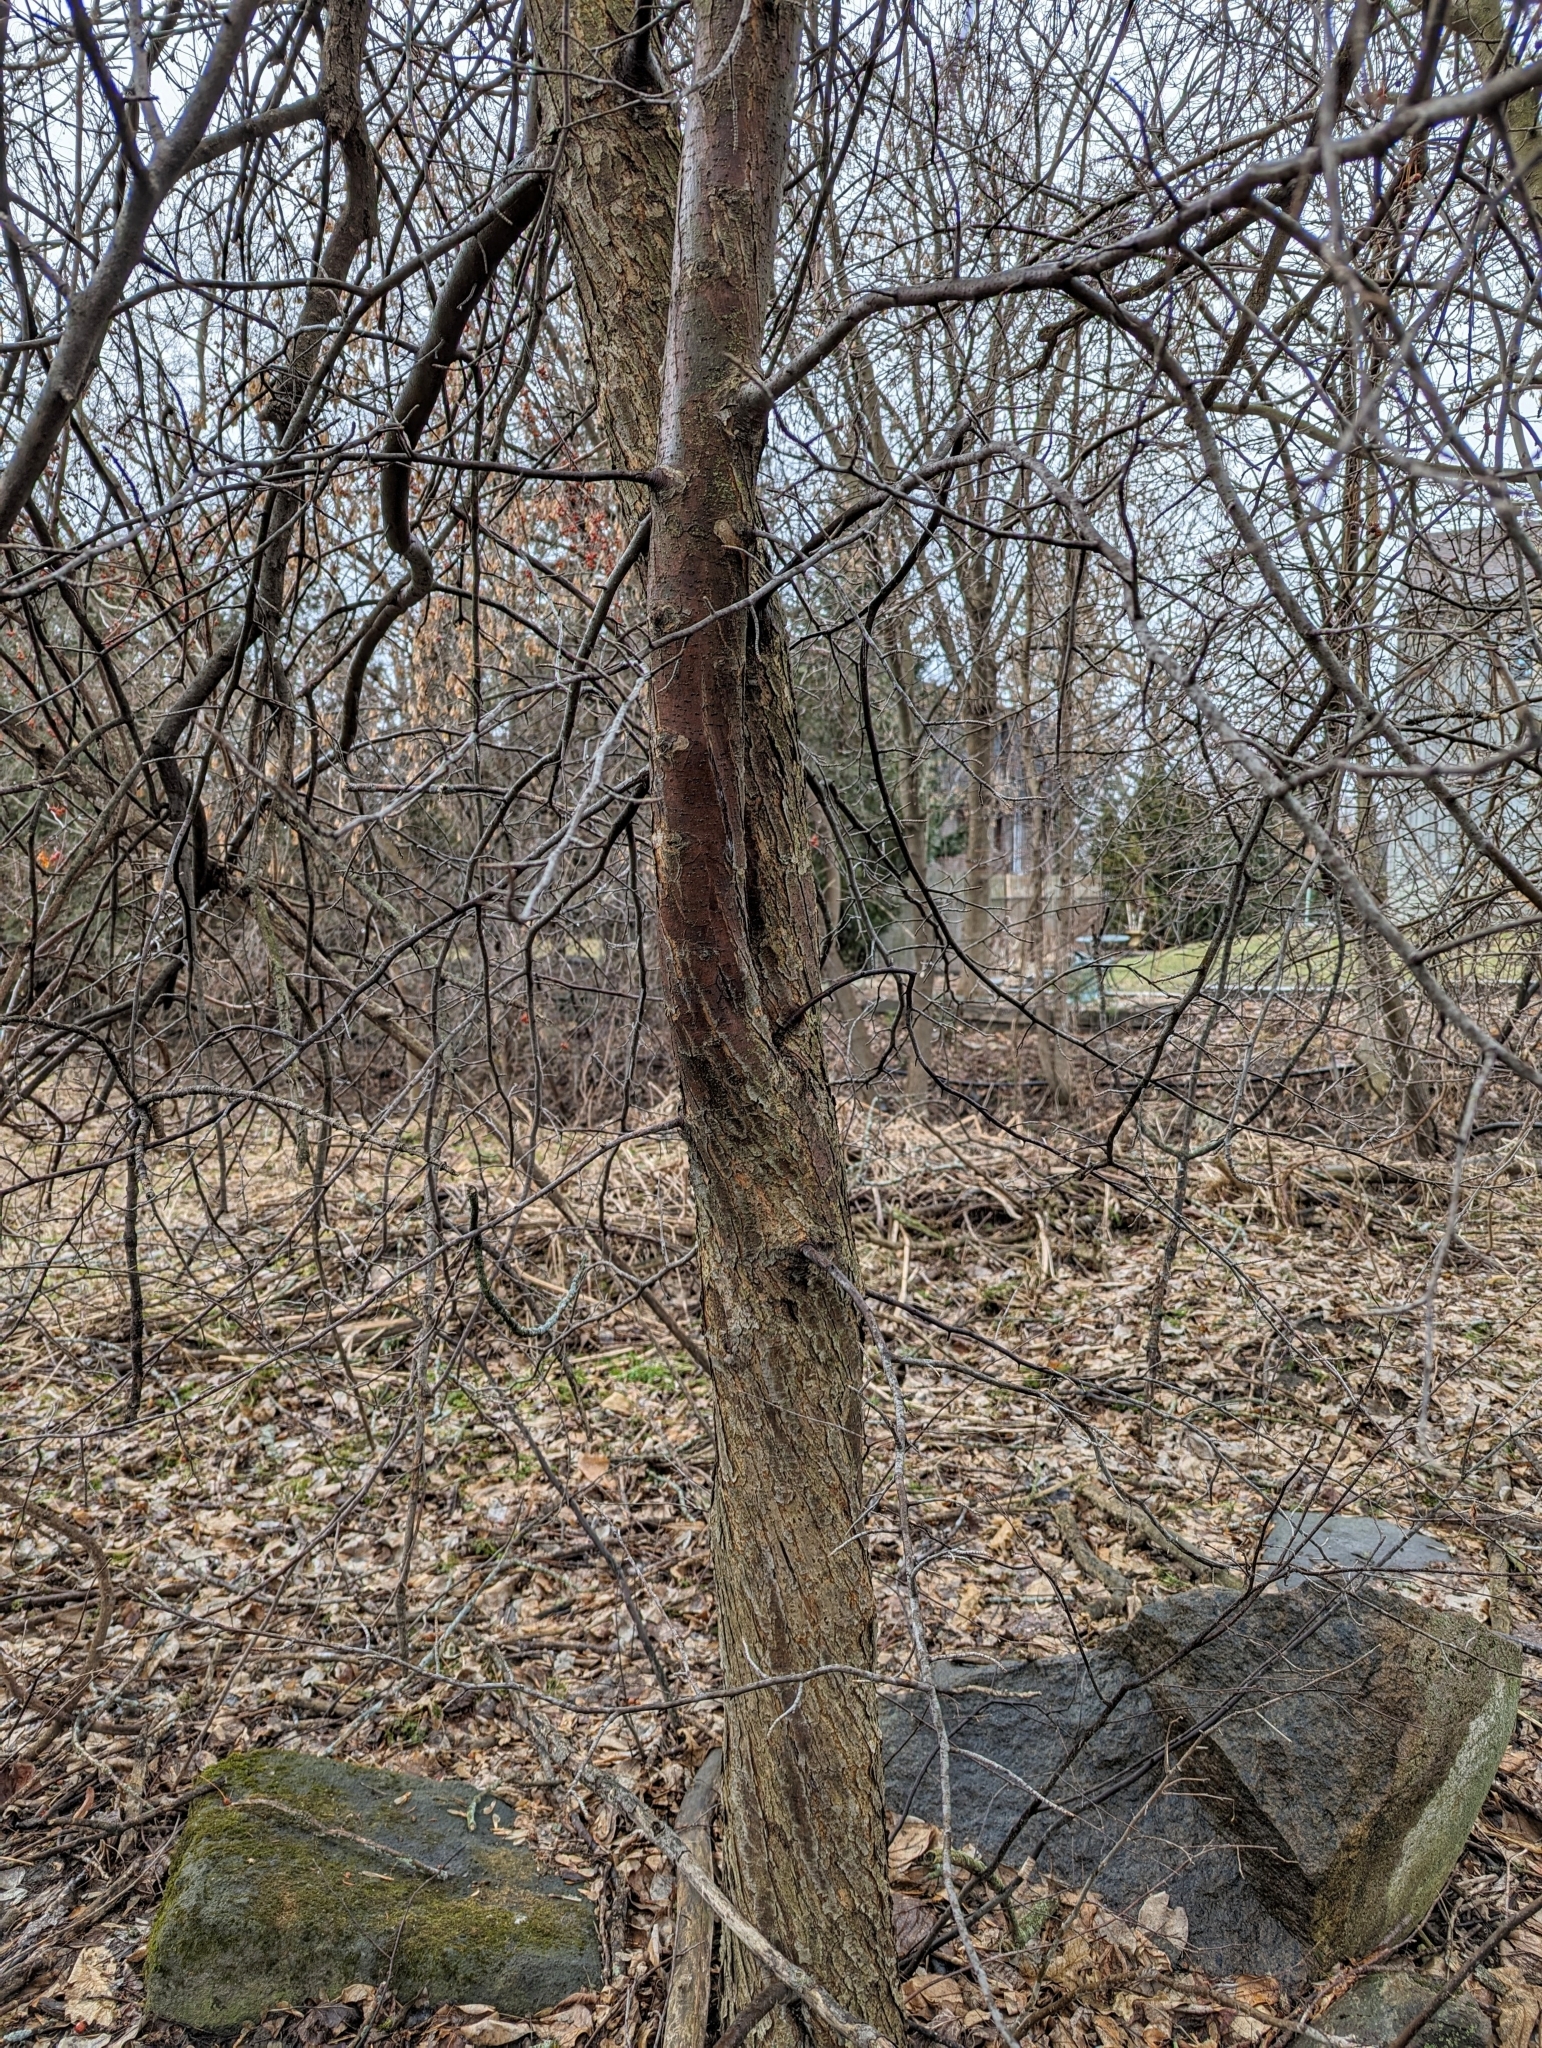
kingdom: Plantae
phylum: Tracheophyta
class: Magnoliopsida
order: Rosales
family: Rosaceae
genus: Malus
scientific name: Malus
